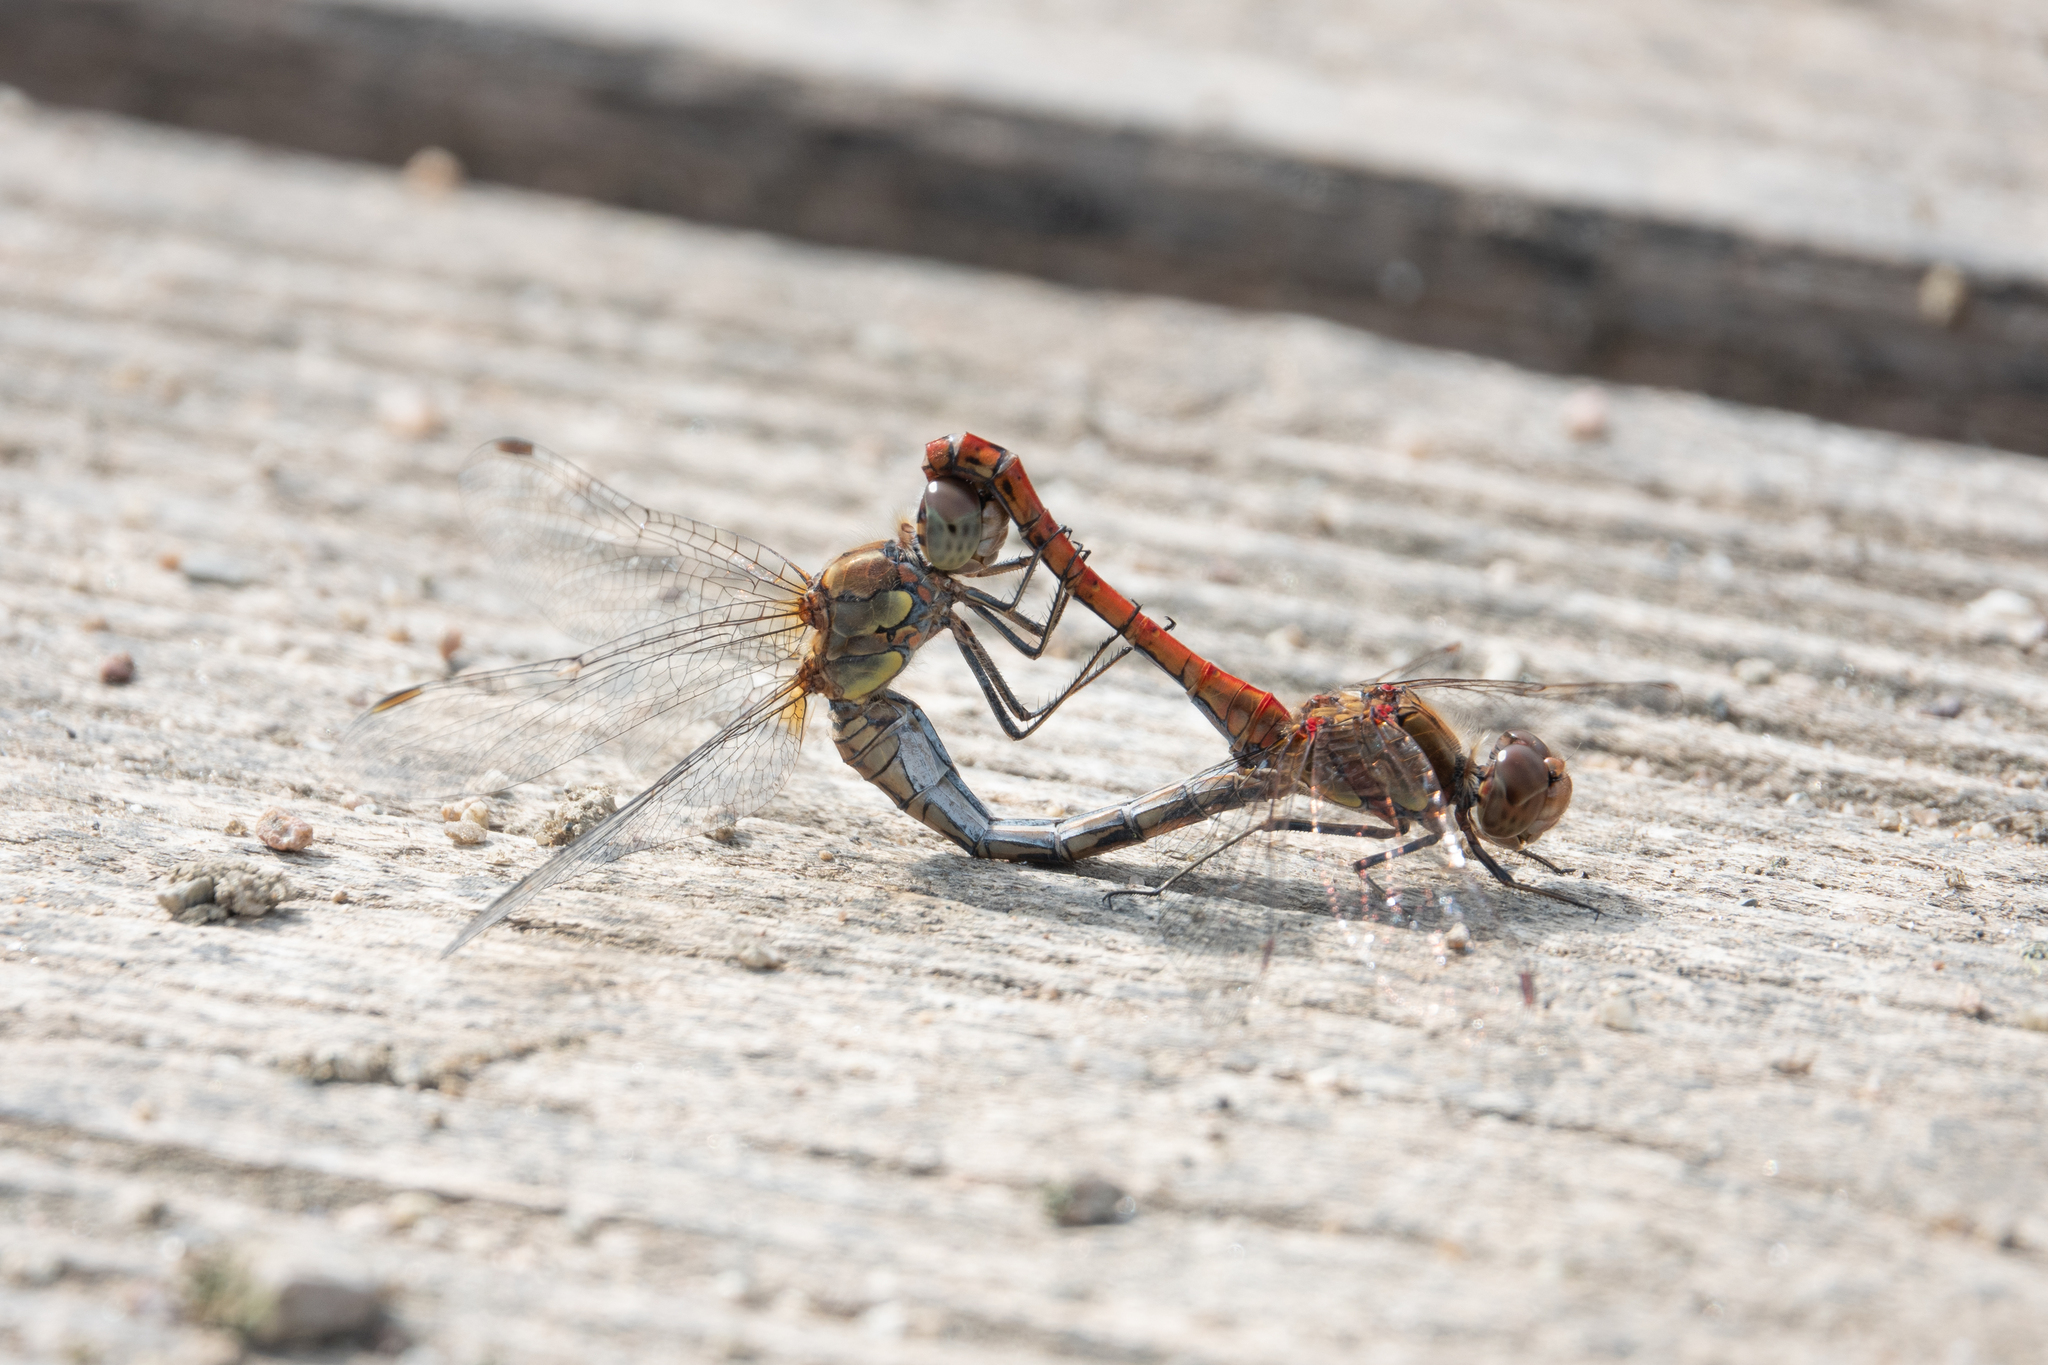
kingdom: Animalia
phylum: Arthropoda
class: Insecta
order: Odonata
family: Libellulidae
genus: Sympetrum
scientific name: Sympetrum striolatum
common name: Common darter
